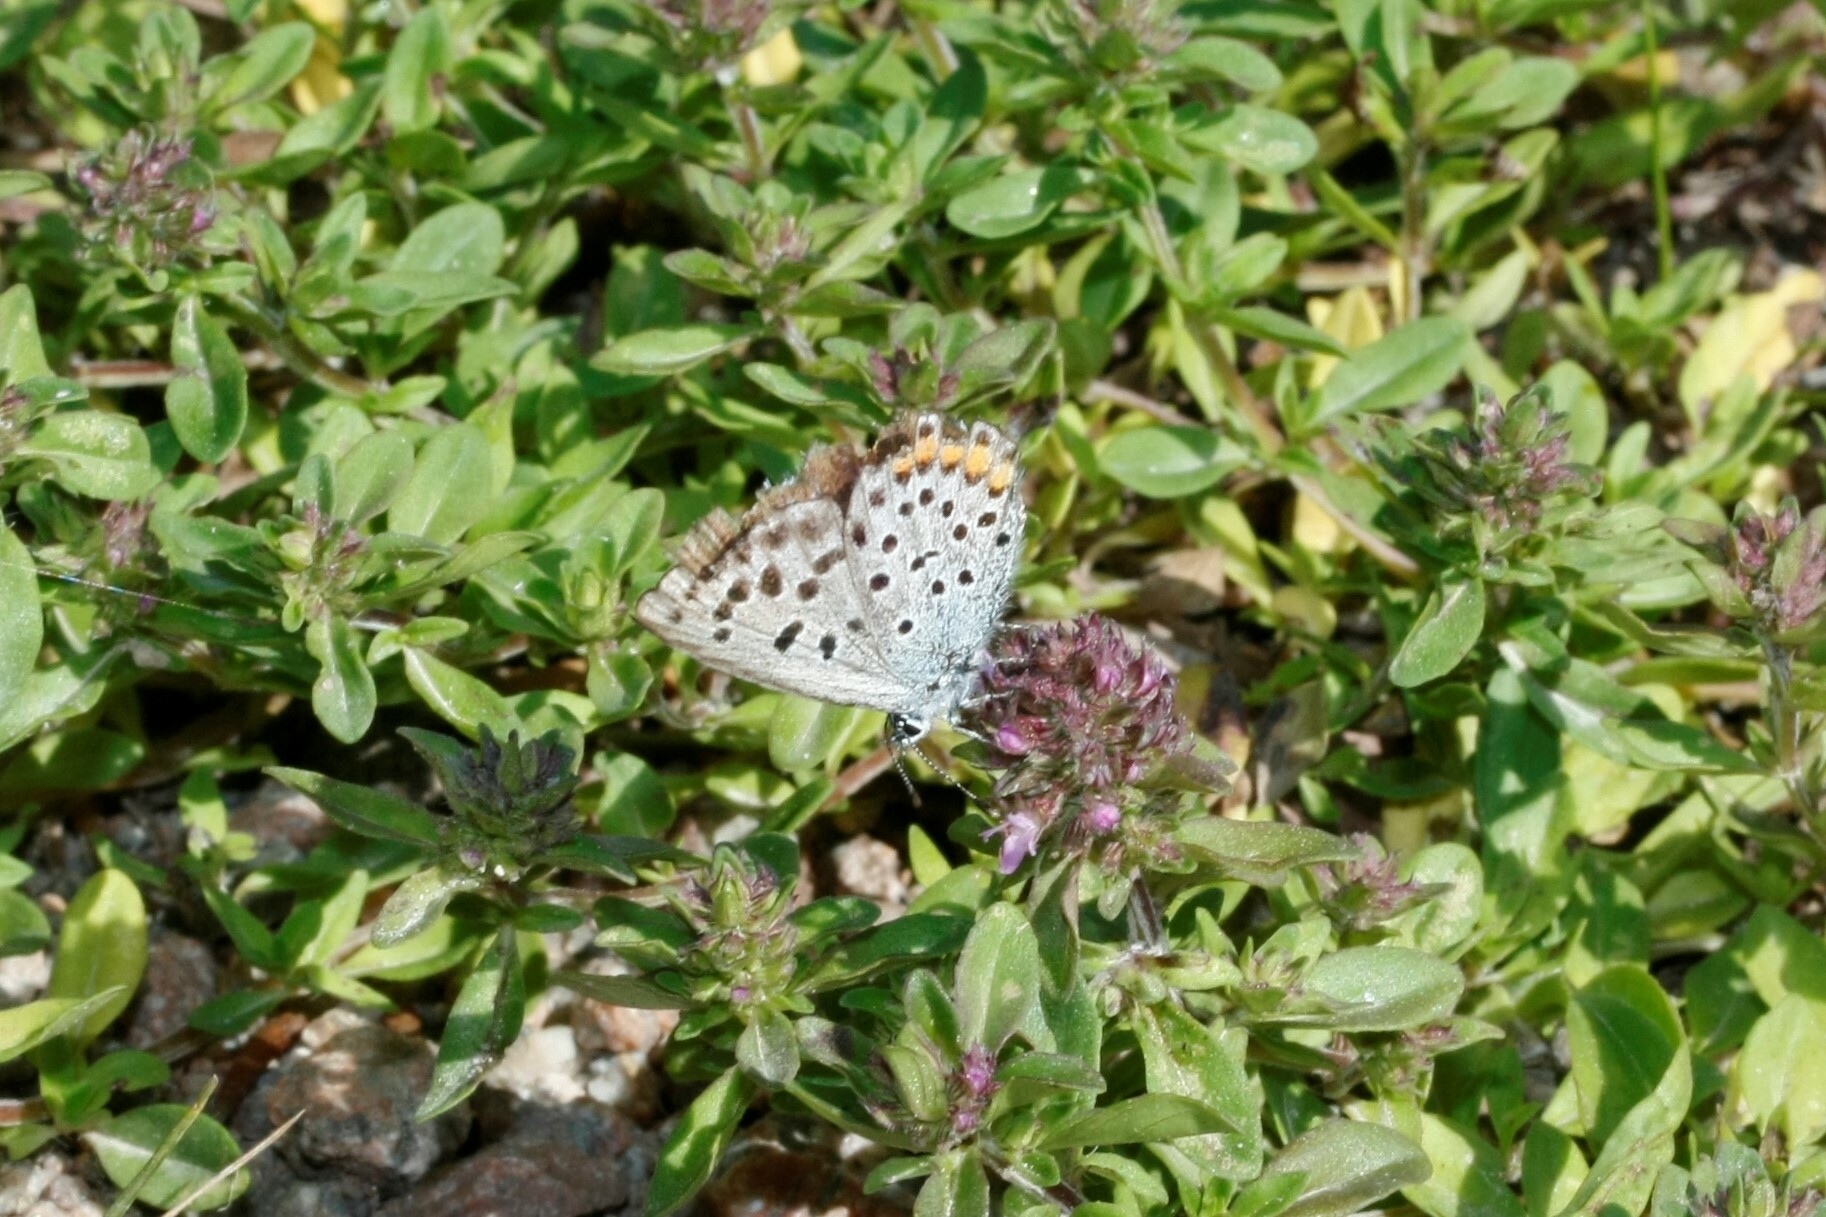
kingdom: Animalia
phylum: Arthropoda
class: Insecta
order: Lepidoptera
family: Lycaenidae
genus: Pseudophilotes
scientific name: Pseudophilotes baton
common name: Baton blue
